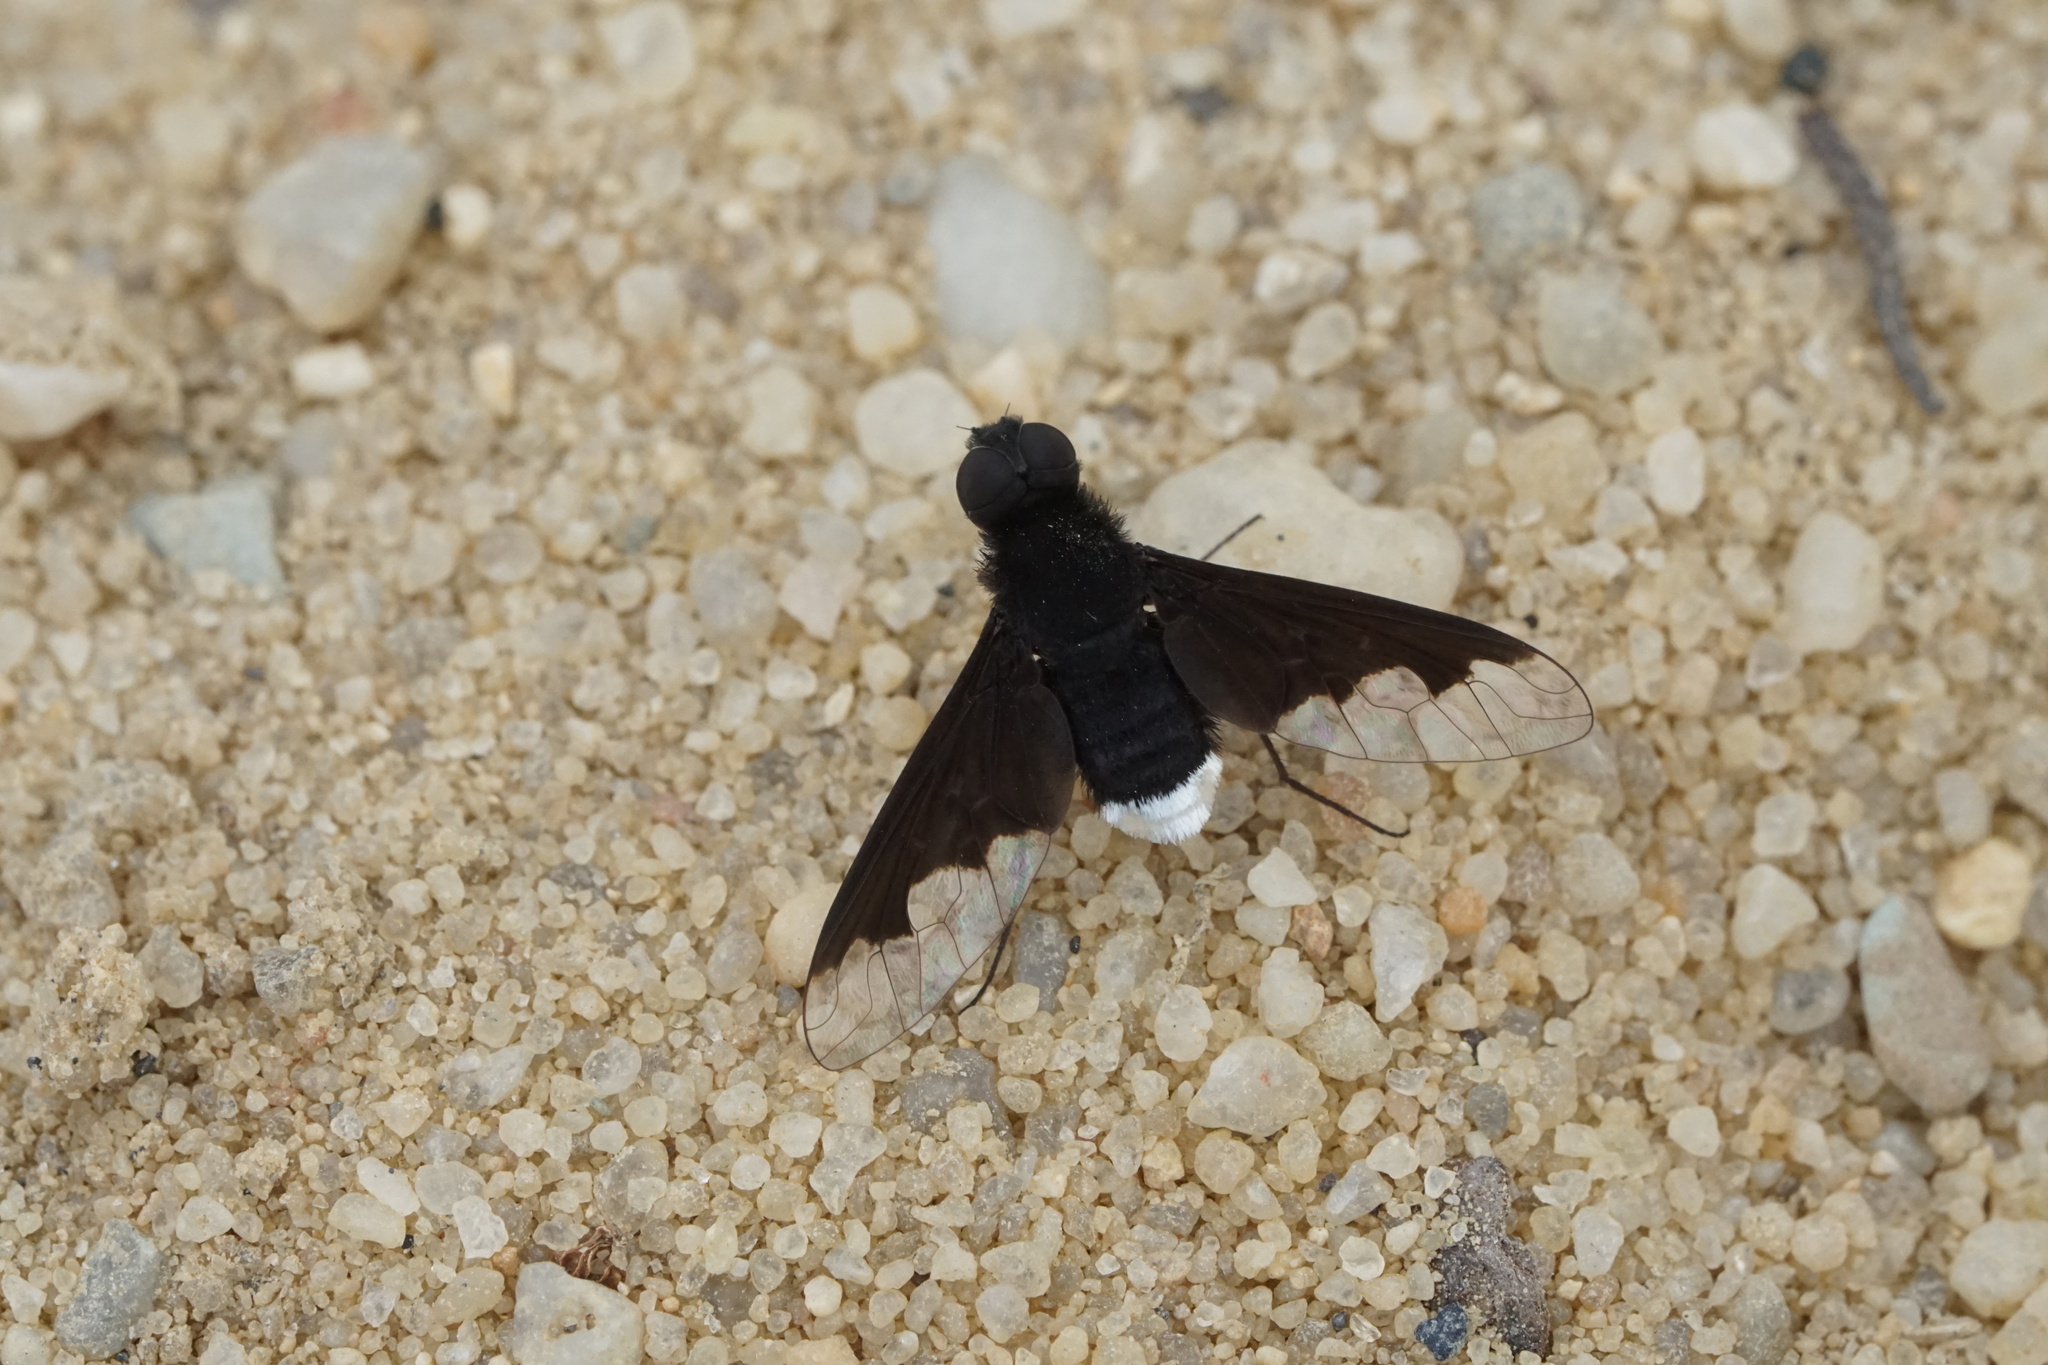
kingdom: Animalia
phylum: Arthropoda
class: Insecta
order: Diptera
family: Bombyliidae
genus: Anthrax
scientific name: Anthrax analis
